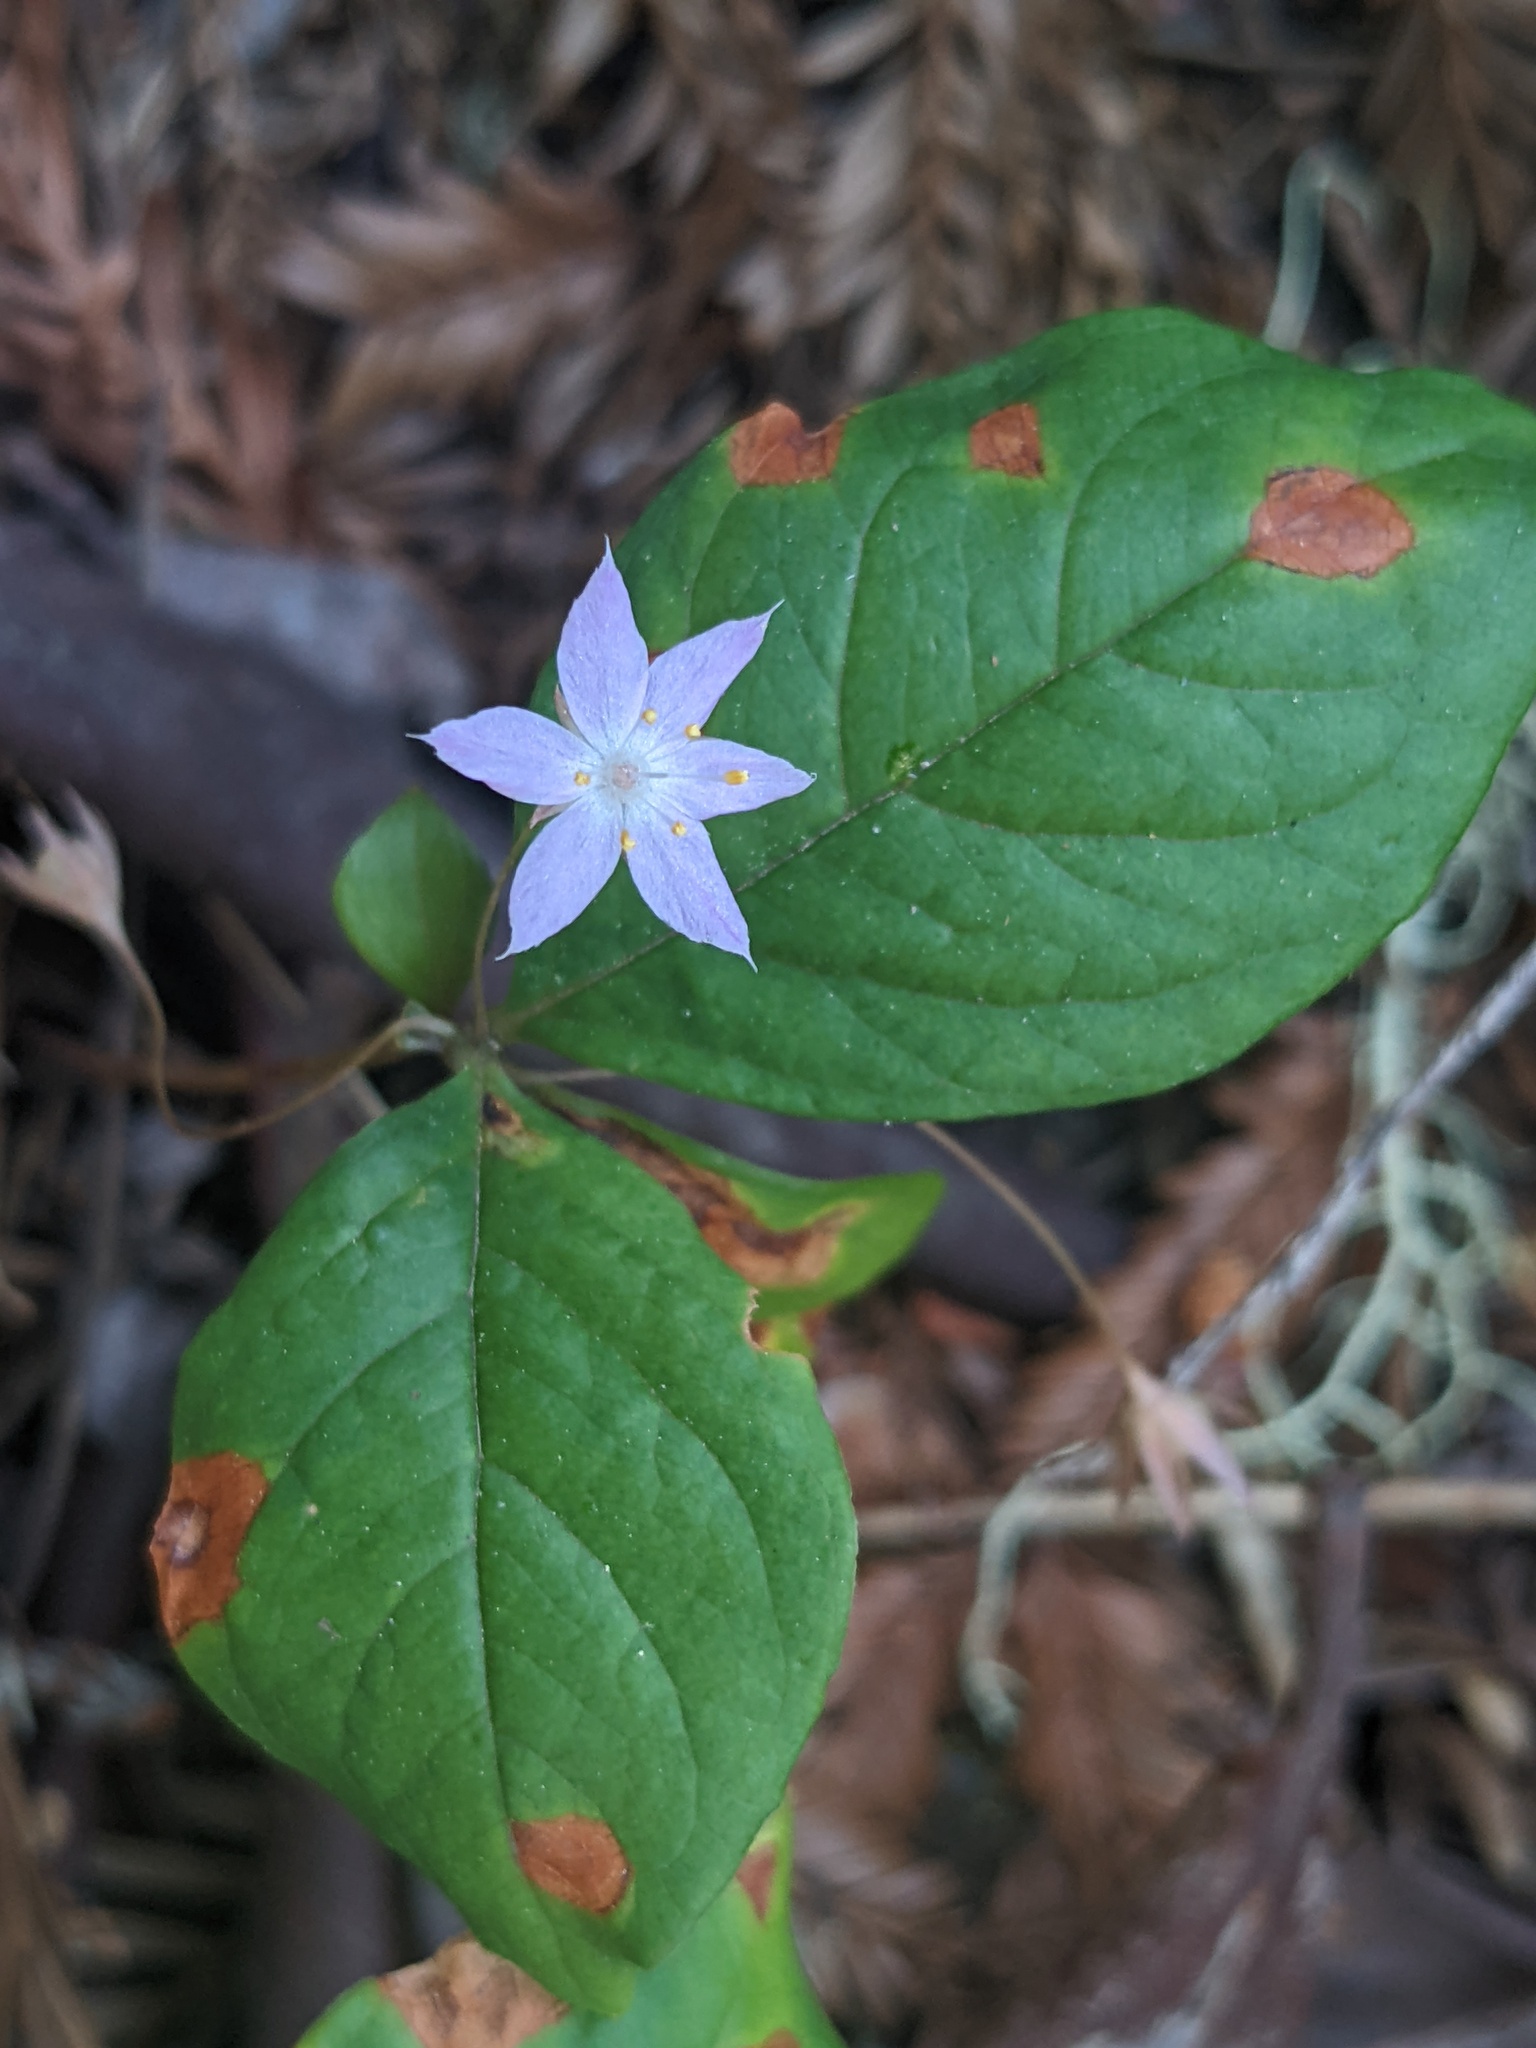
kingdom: Plantae
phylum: Tracheophyta
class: Magnoliopsida
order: Ericales
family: Primulaceae
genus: Lysimachia
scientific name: Lysimachia latifolia
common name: Pacific starflower
